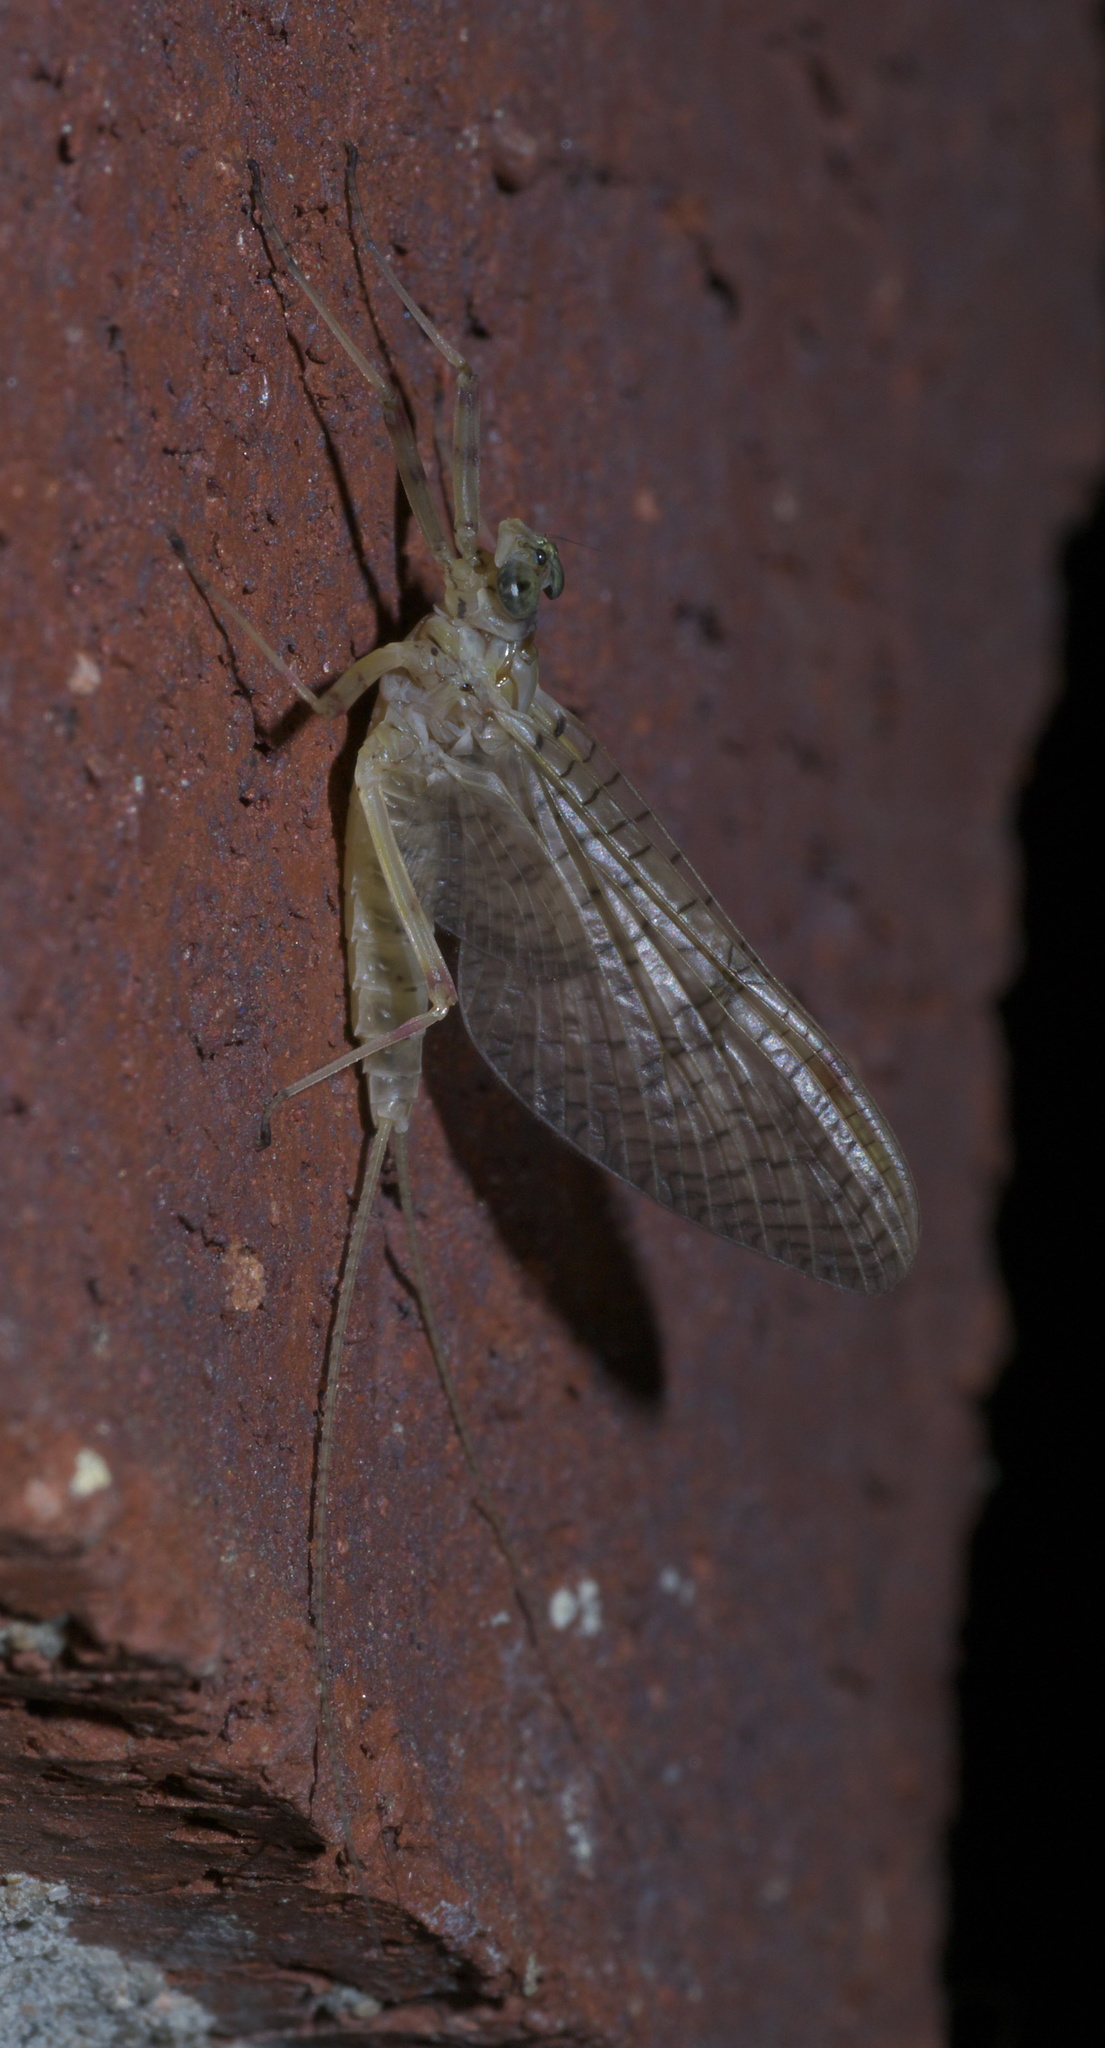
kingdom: Animalia
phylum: Arthropoda
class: Insecta
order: Ephemeroptera
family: Heptageniidae
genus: Stenonema
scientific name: Stenonema femoratum
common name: Dark cahill
